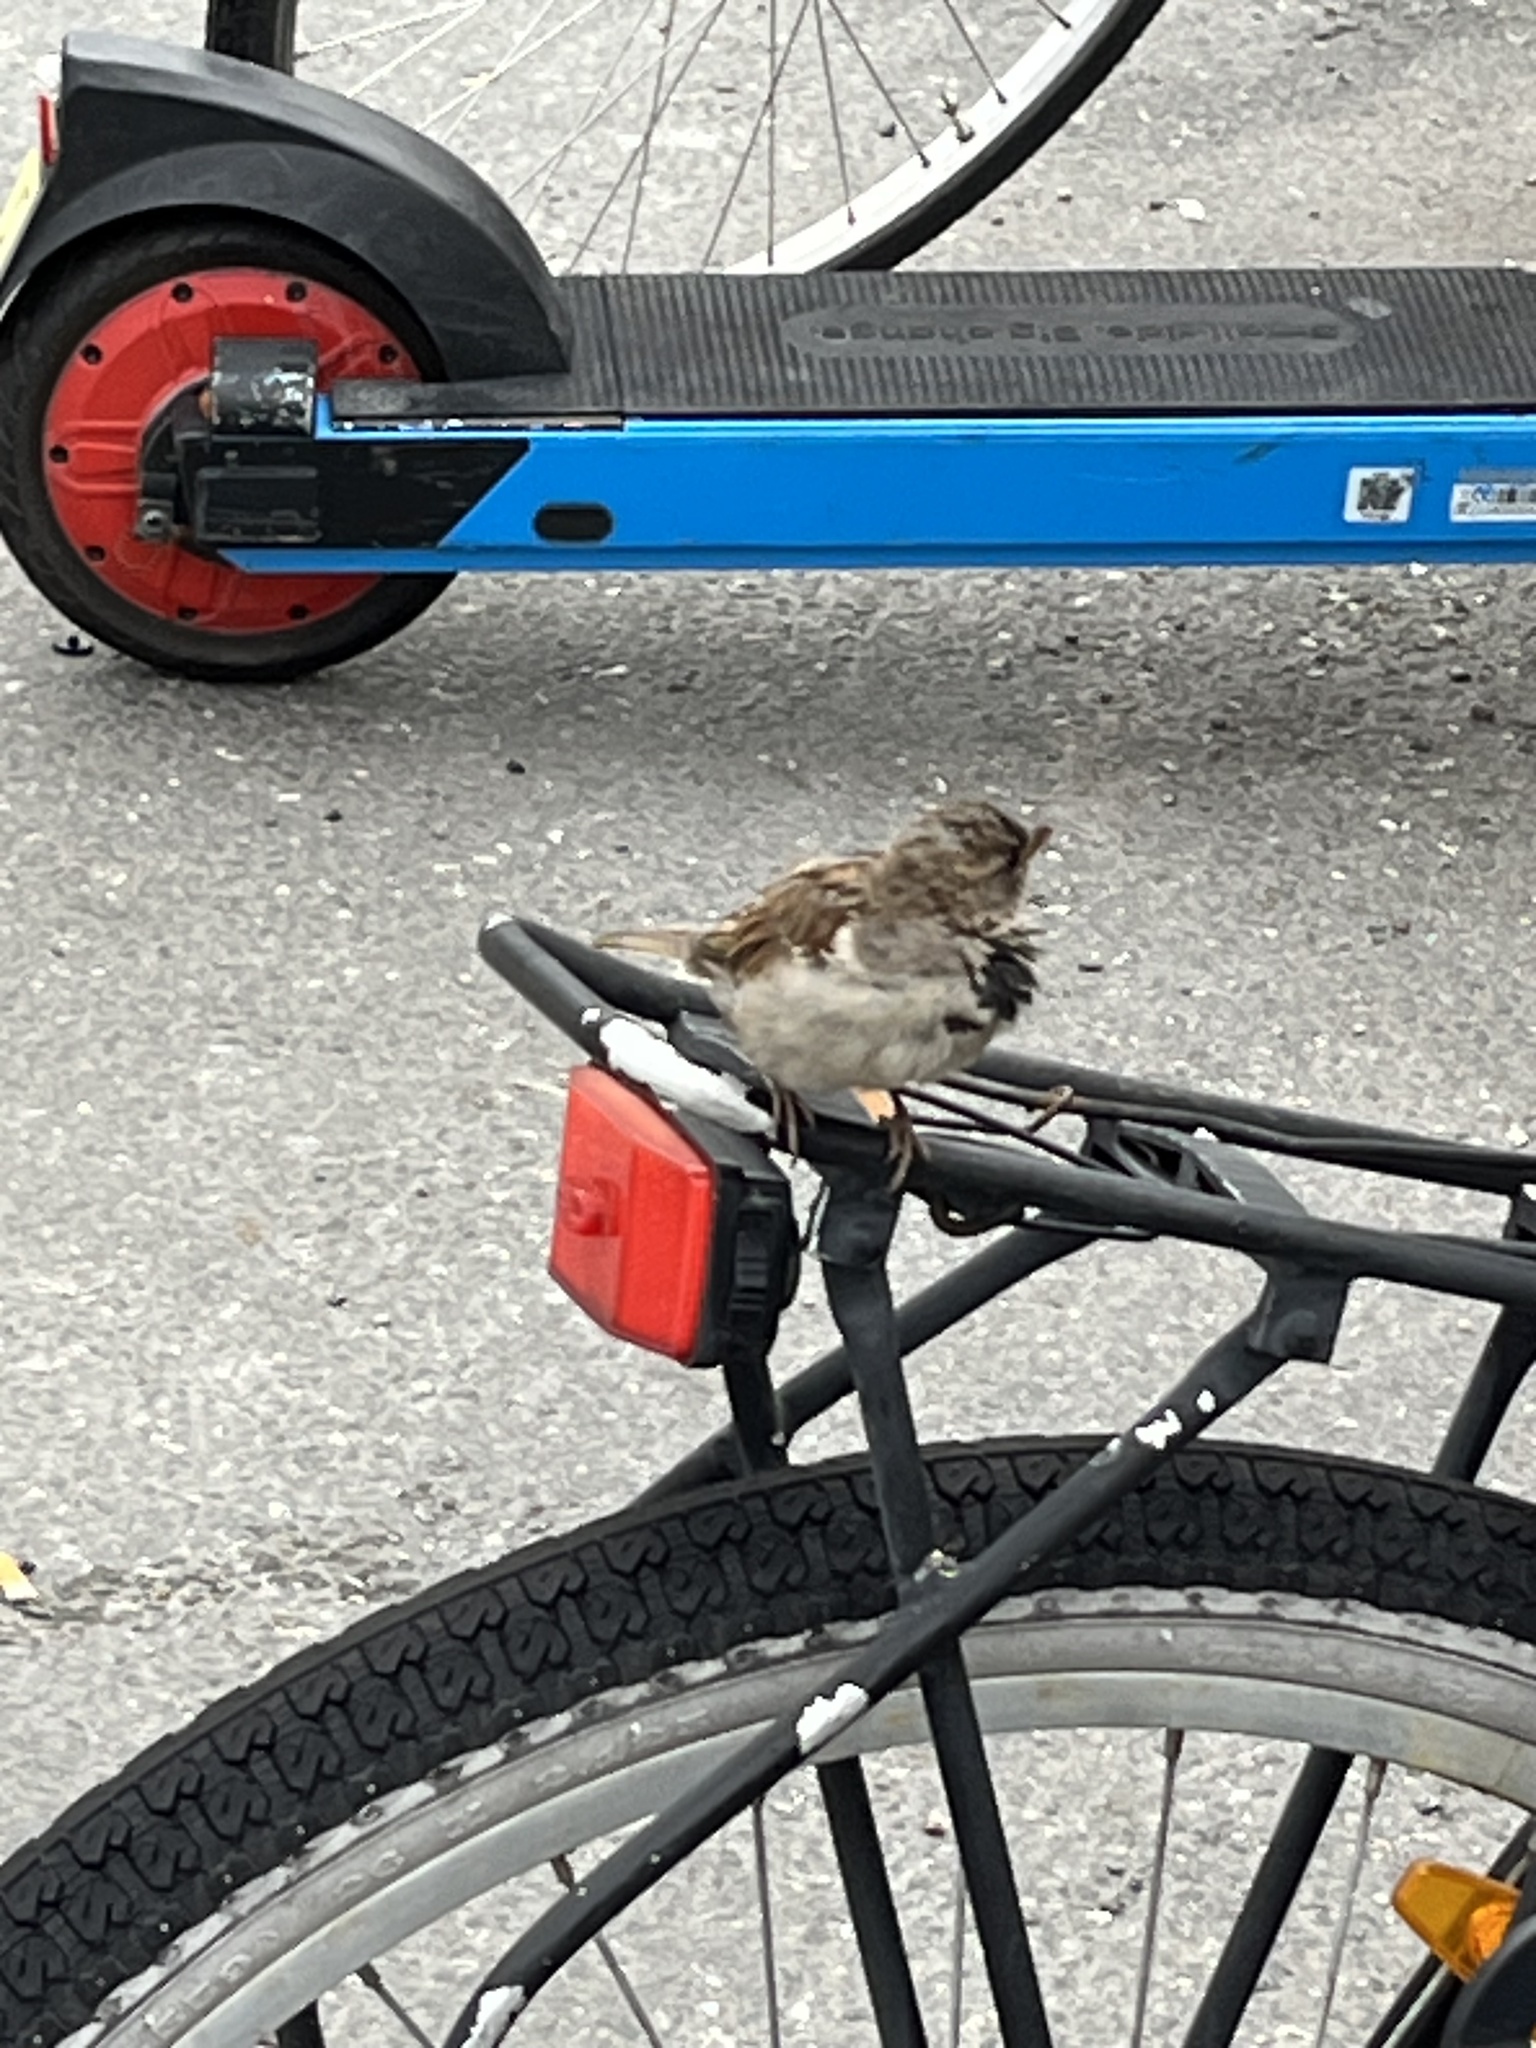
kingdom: Animalia
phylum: Chordata
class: Aves
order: Passeriformes
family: Passeridae
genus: Passer
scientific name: Passer domesticus
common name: House sparrow
